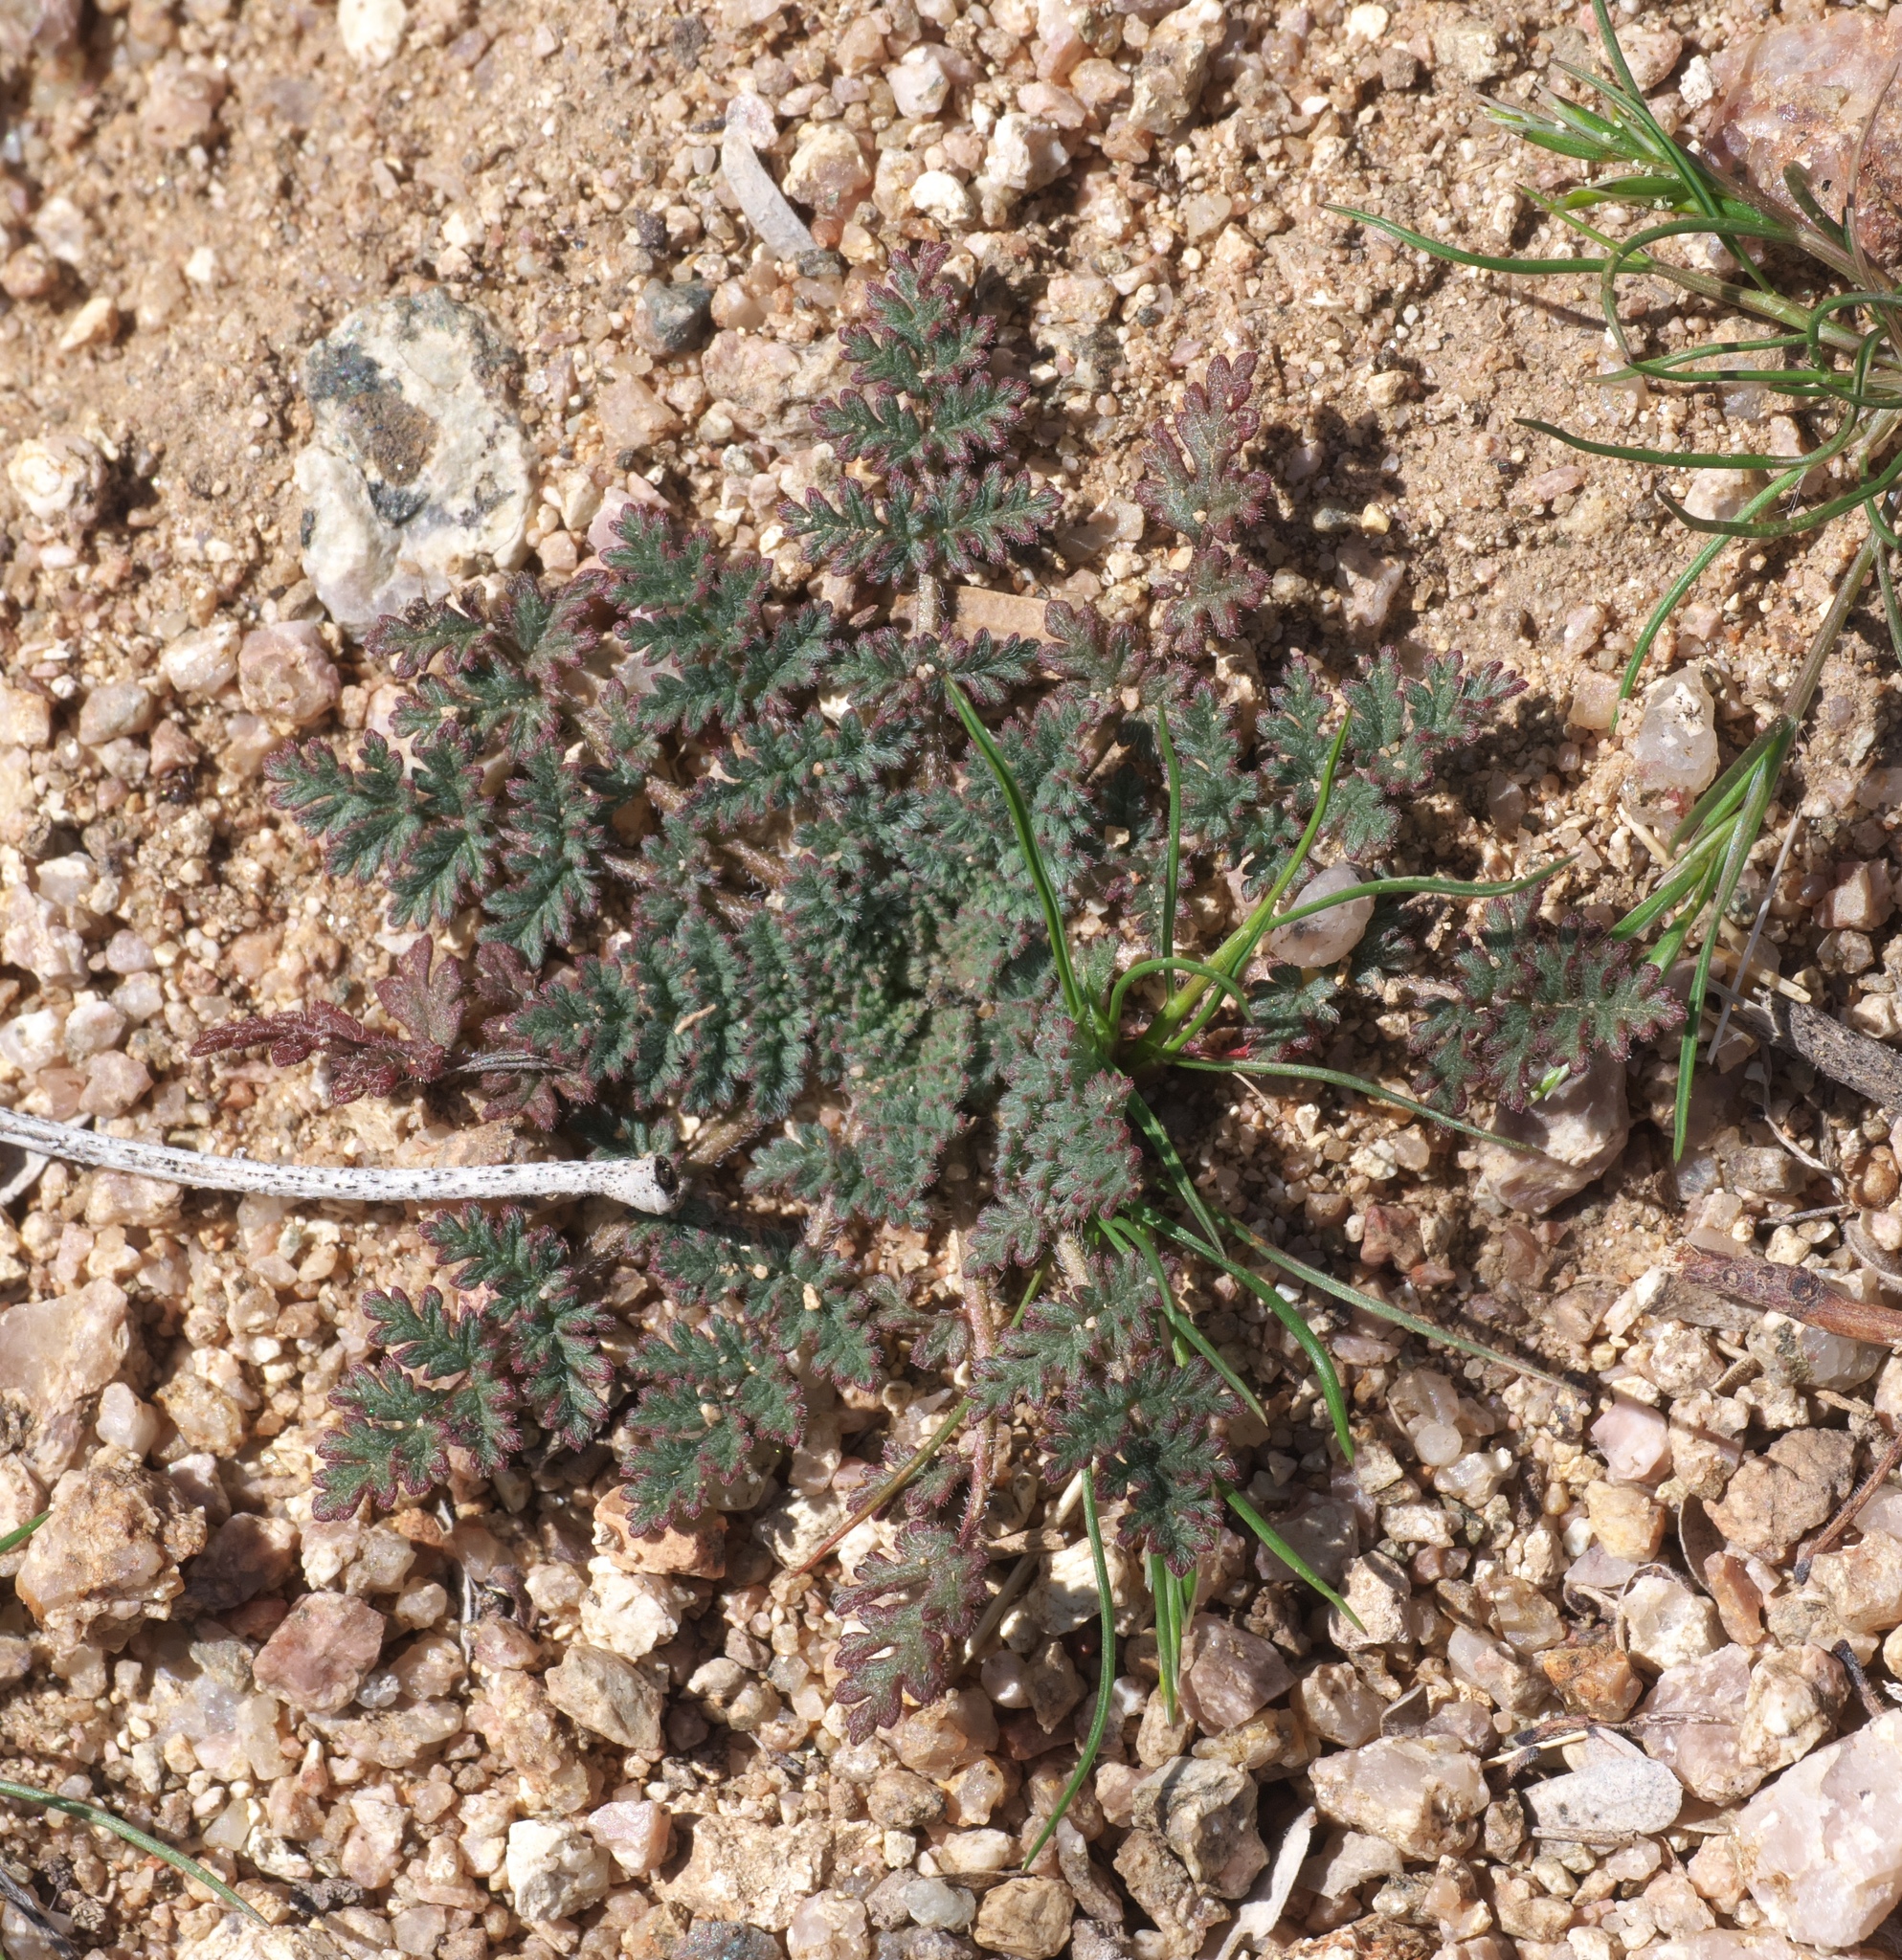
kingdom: Plantae
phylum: Tracheophyta
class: Magnoliopsida
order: Geraniales
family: Geraniaceae
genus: Erodium
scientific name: Erodium cicutarium
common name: Common stork's-bill
